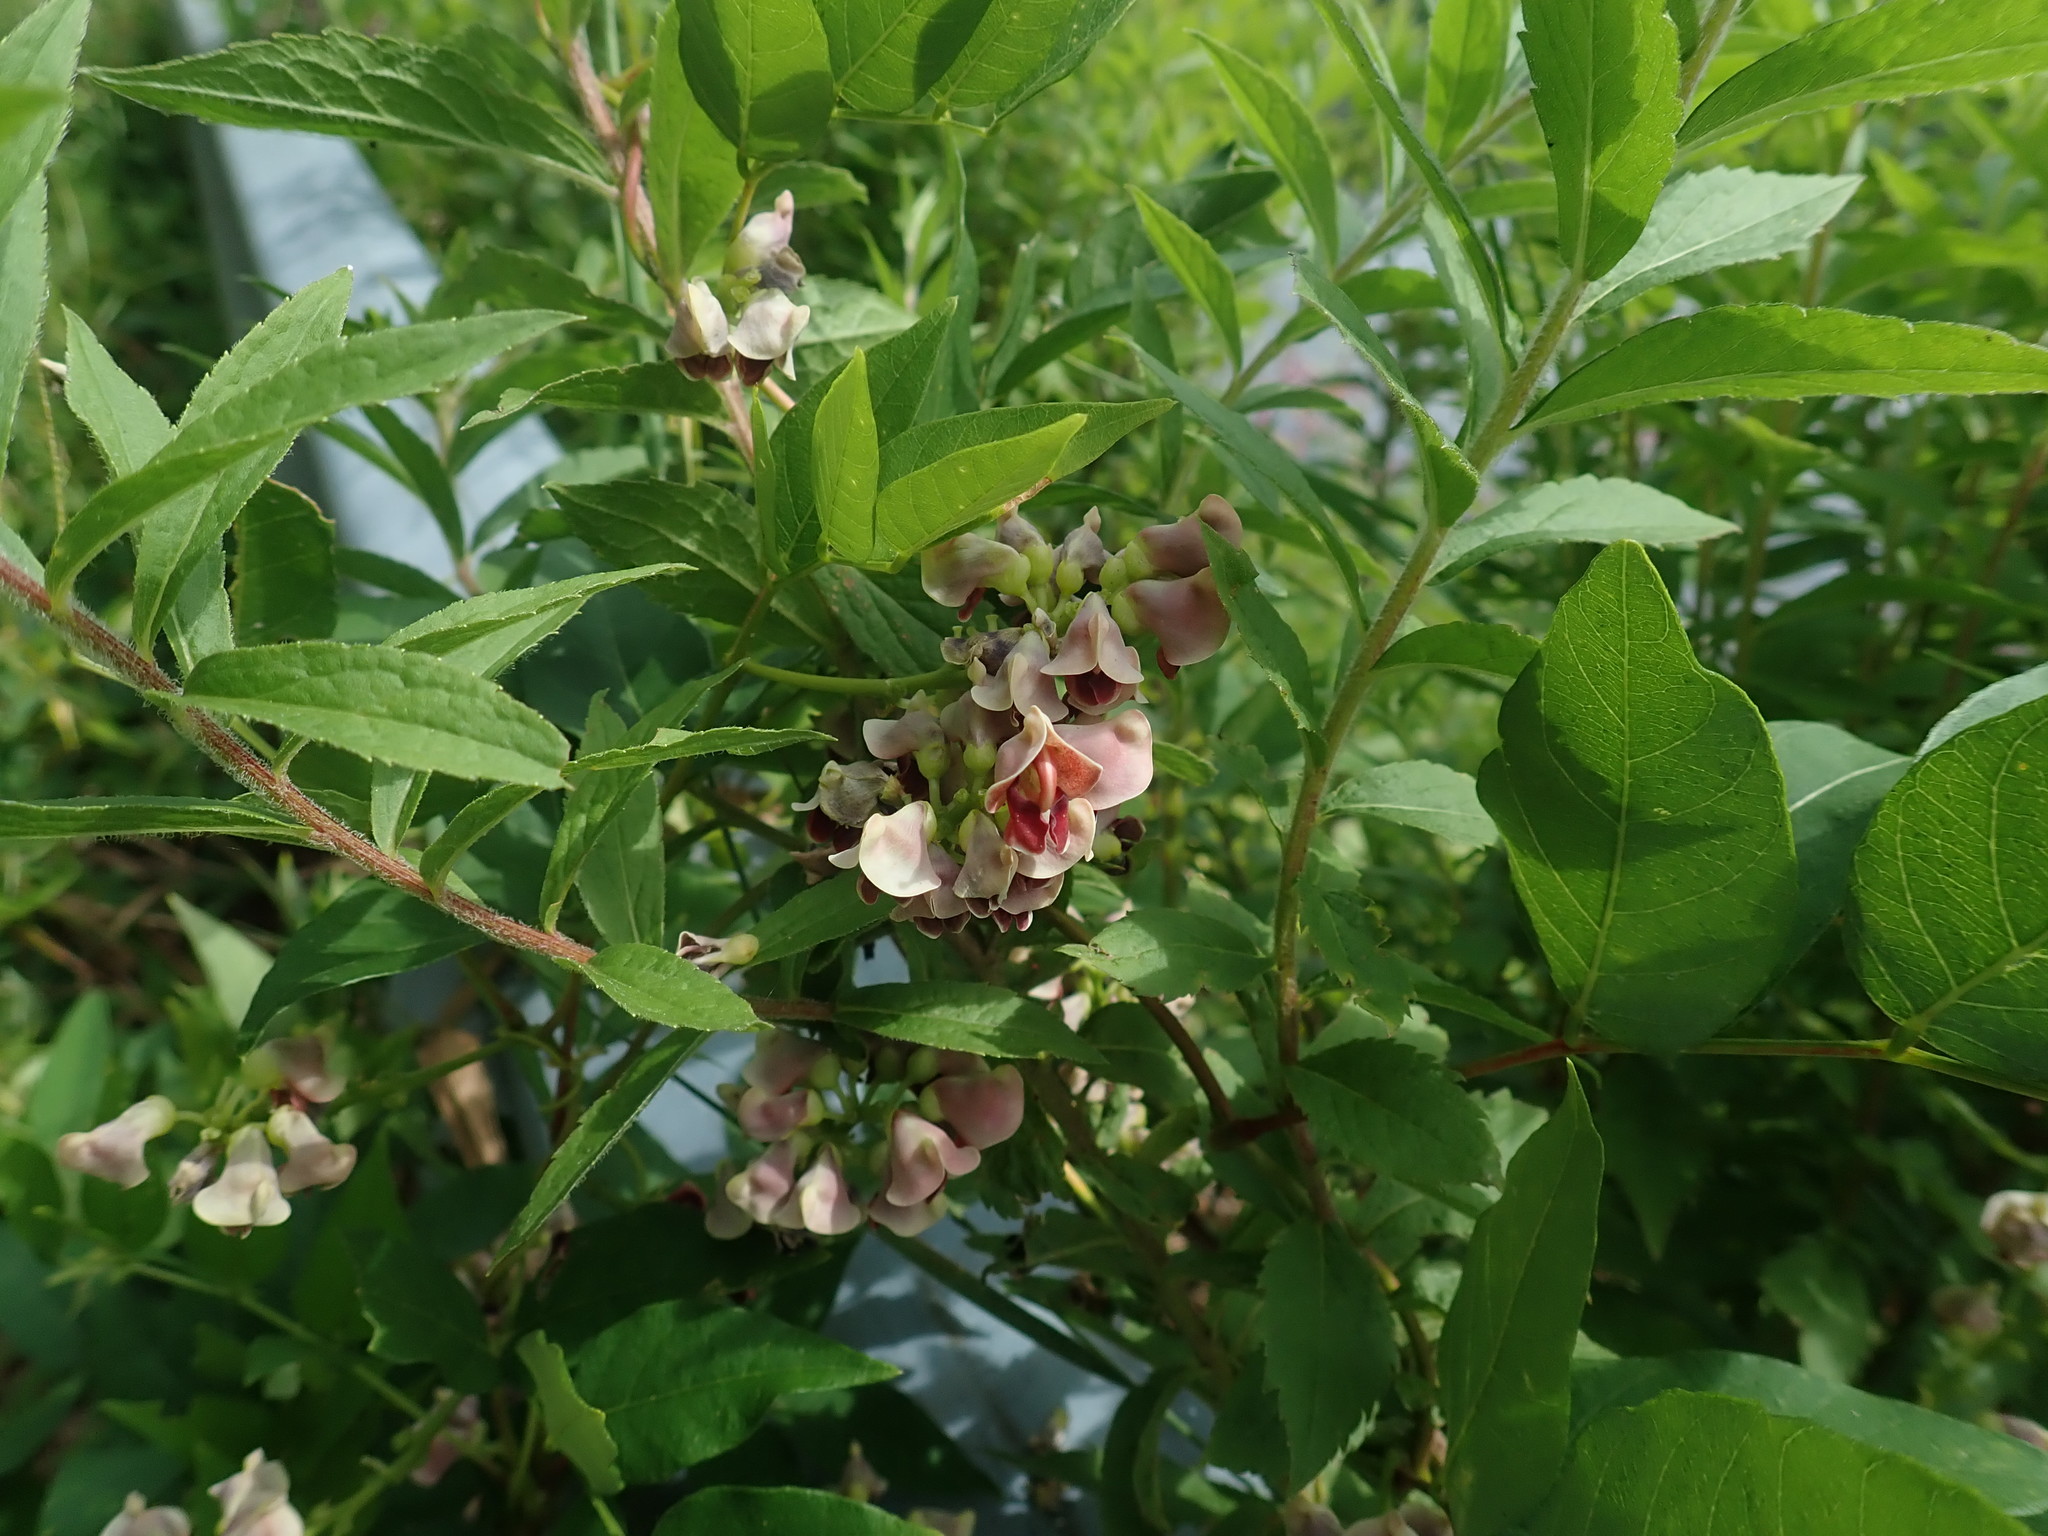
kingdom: Plantae
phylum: Tracheophyta
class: Magnoliopsida
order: Fabales
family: Fabaceae
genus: Apios
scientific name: Apios americana
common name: American potato-bean
